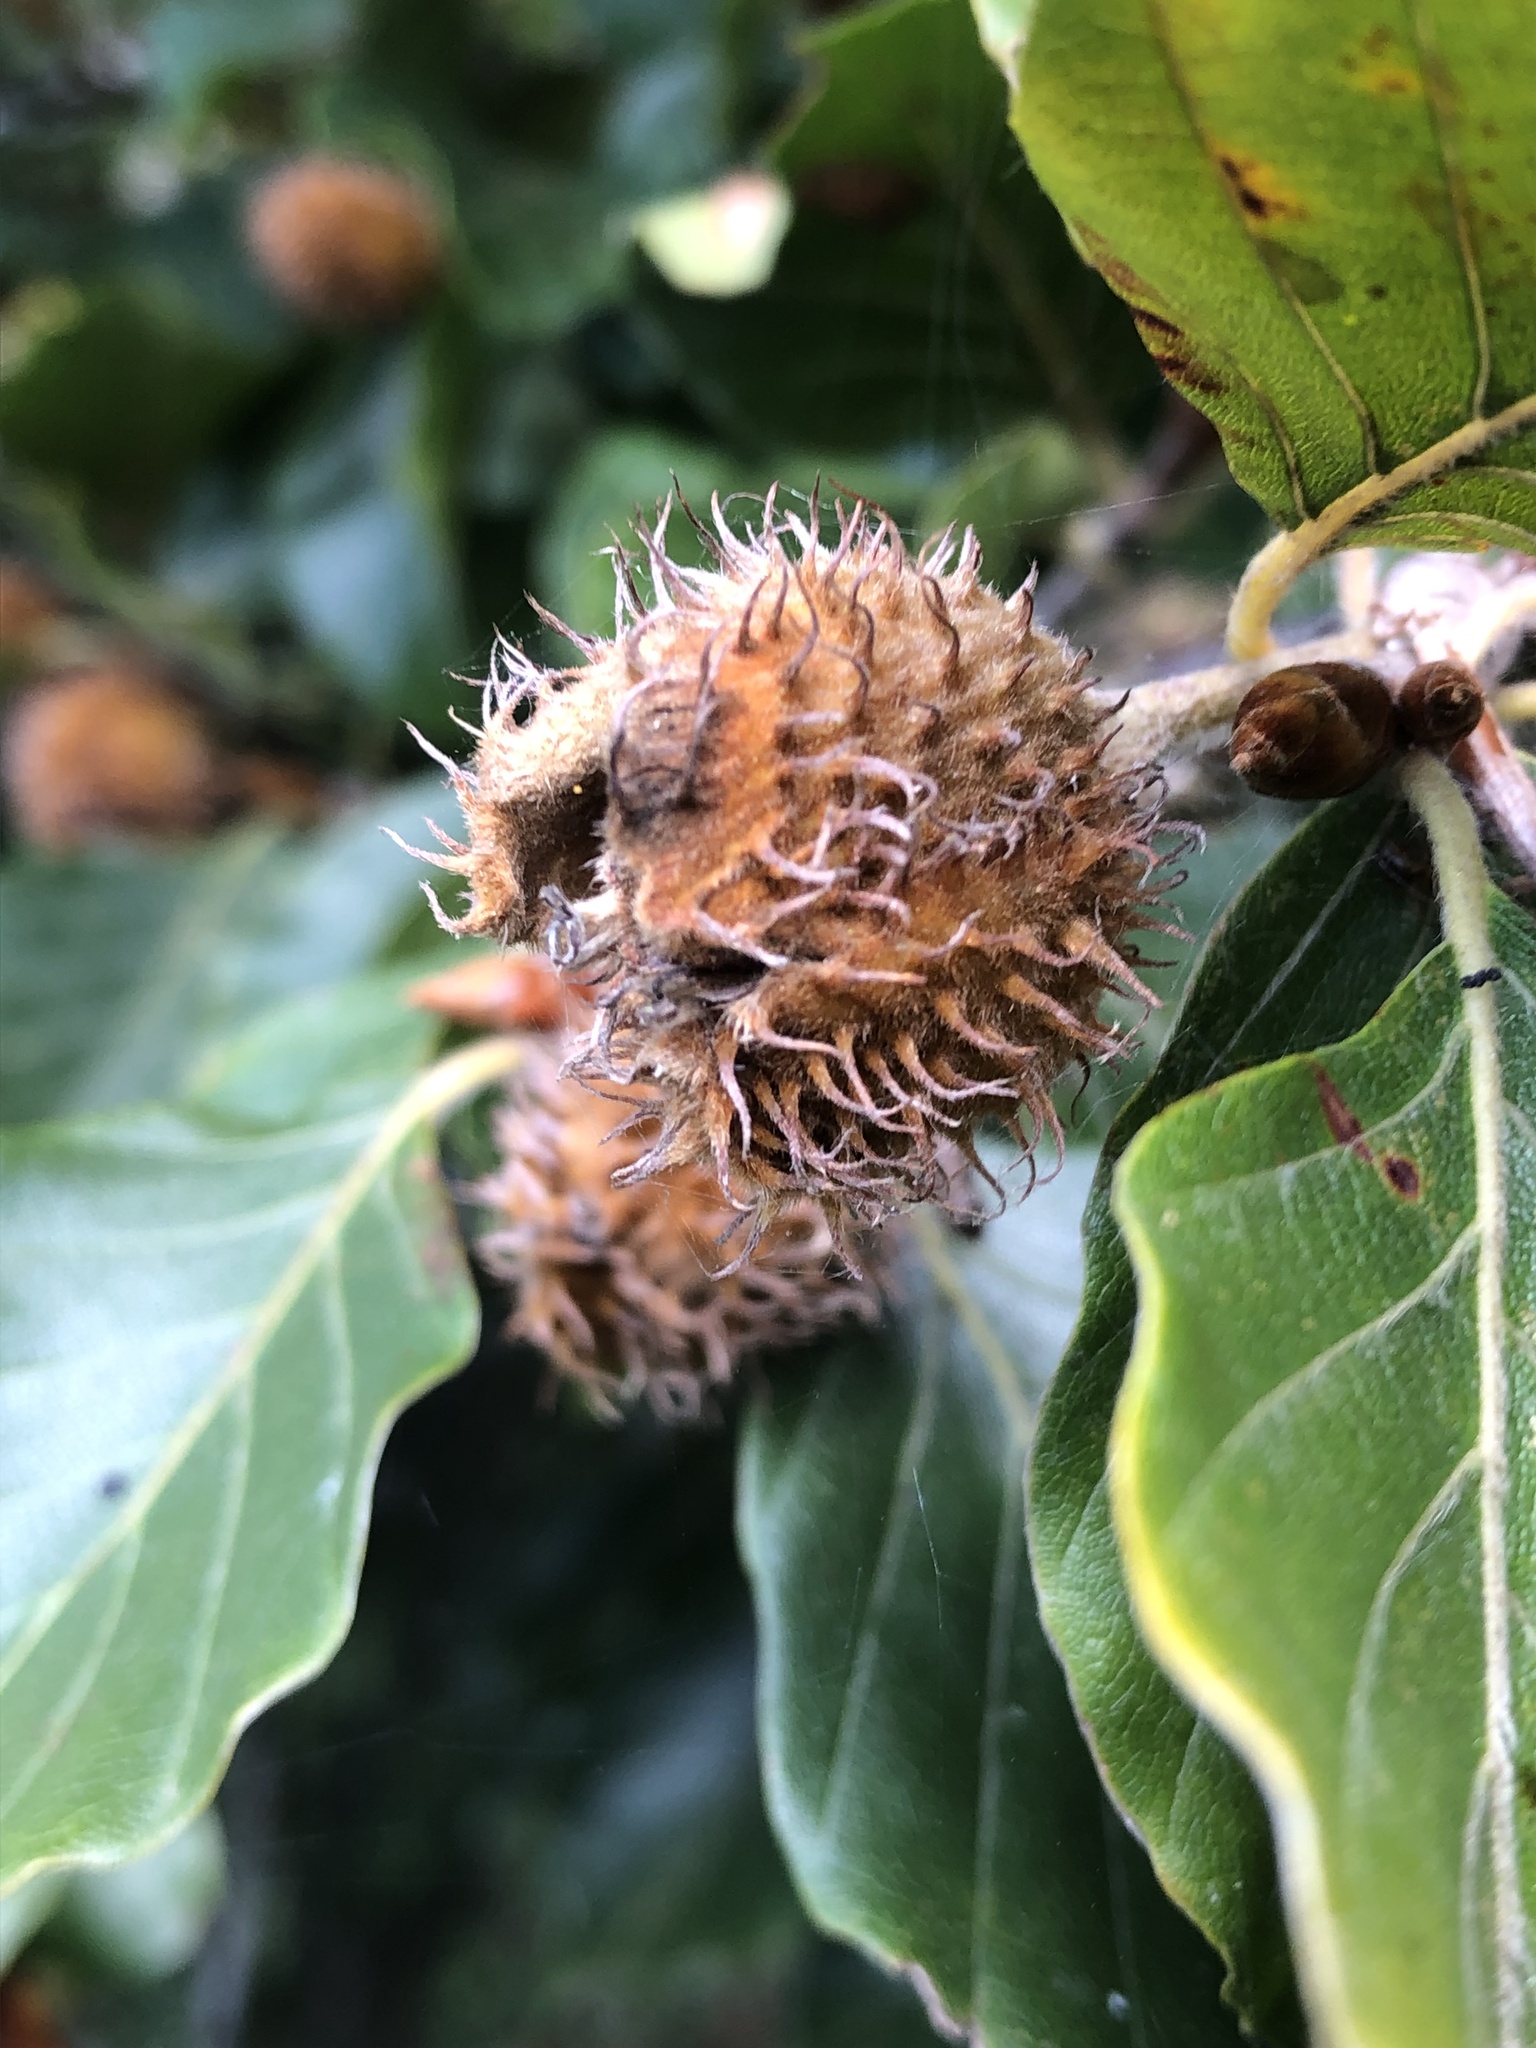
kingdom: Plantae
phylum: Tracheophyta
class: Magnoliopsida
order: Fagales
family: Fagaceae
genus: Fagus
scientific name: Fagus sylvatica
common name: Beech
